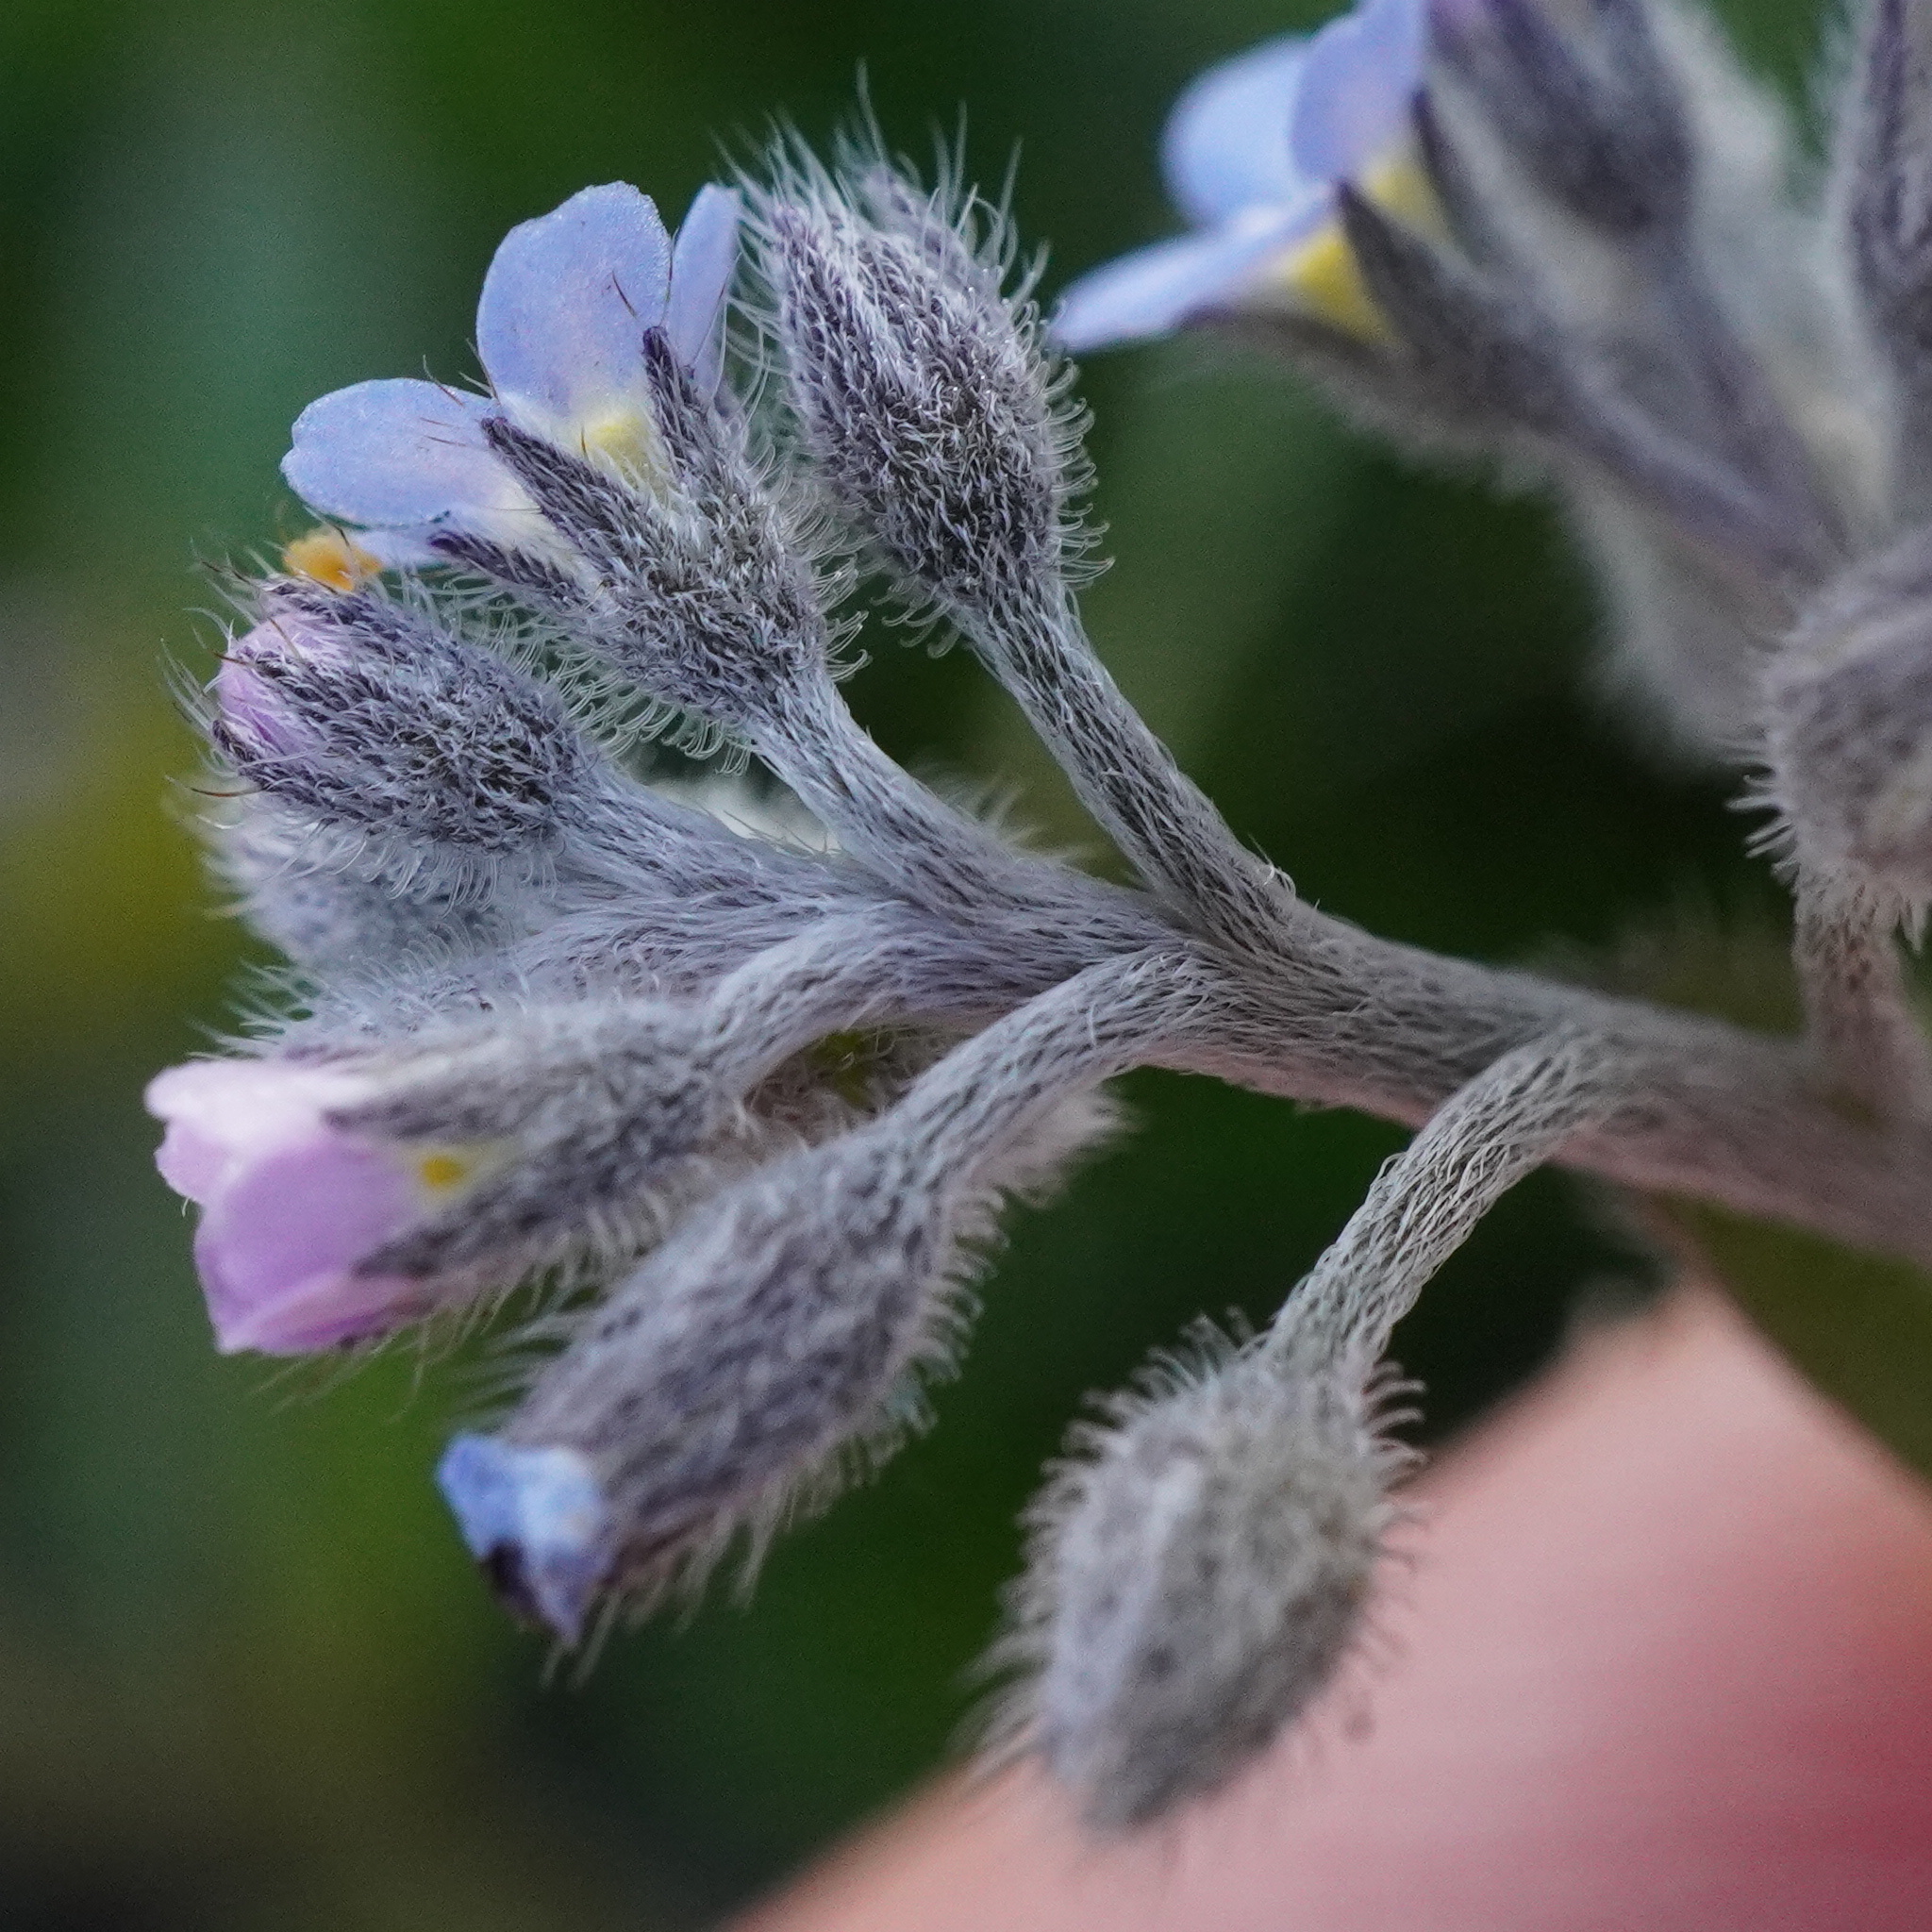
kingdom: Plantae
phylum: Tracheophyta
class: Magnoliopsida
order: Boraginales
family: Boraginaceae
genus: Myosotis
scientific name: Myosotis arvensis
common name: Field forget-me-not
